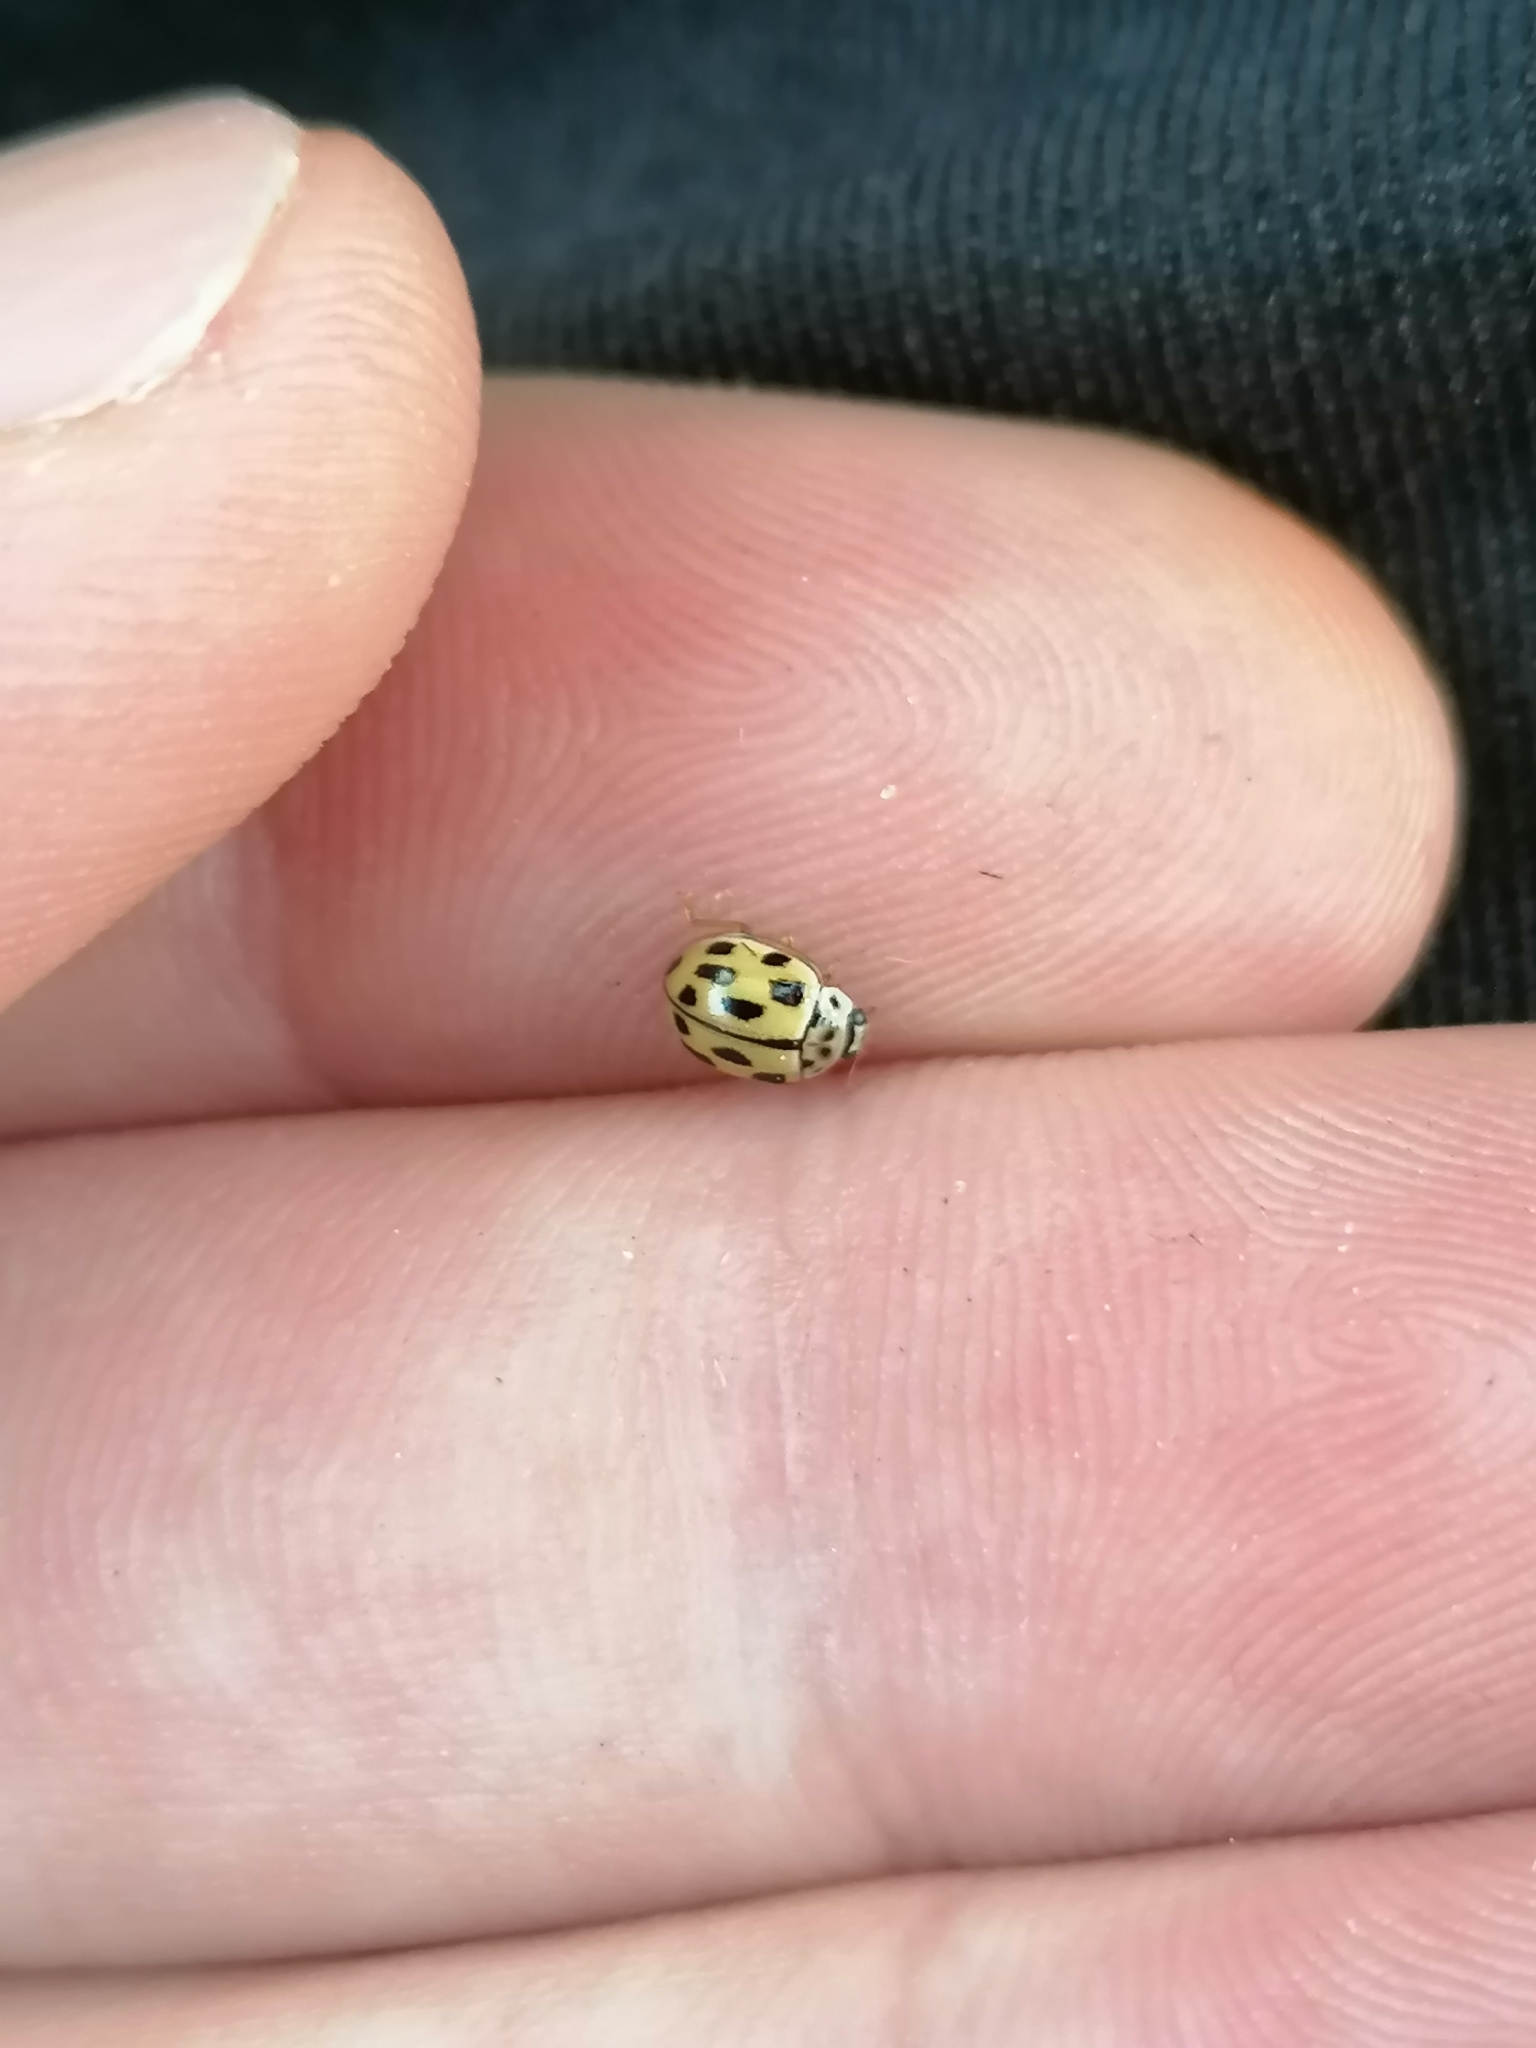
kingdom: Animalia
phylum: Arthropoda
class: Insecta
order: Coleoptera
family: Coccinellidae
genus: Propylaea
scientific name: Propylaea quatuordecimpunctata
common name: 14-spotted ladybird beetle
